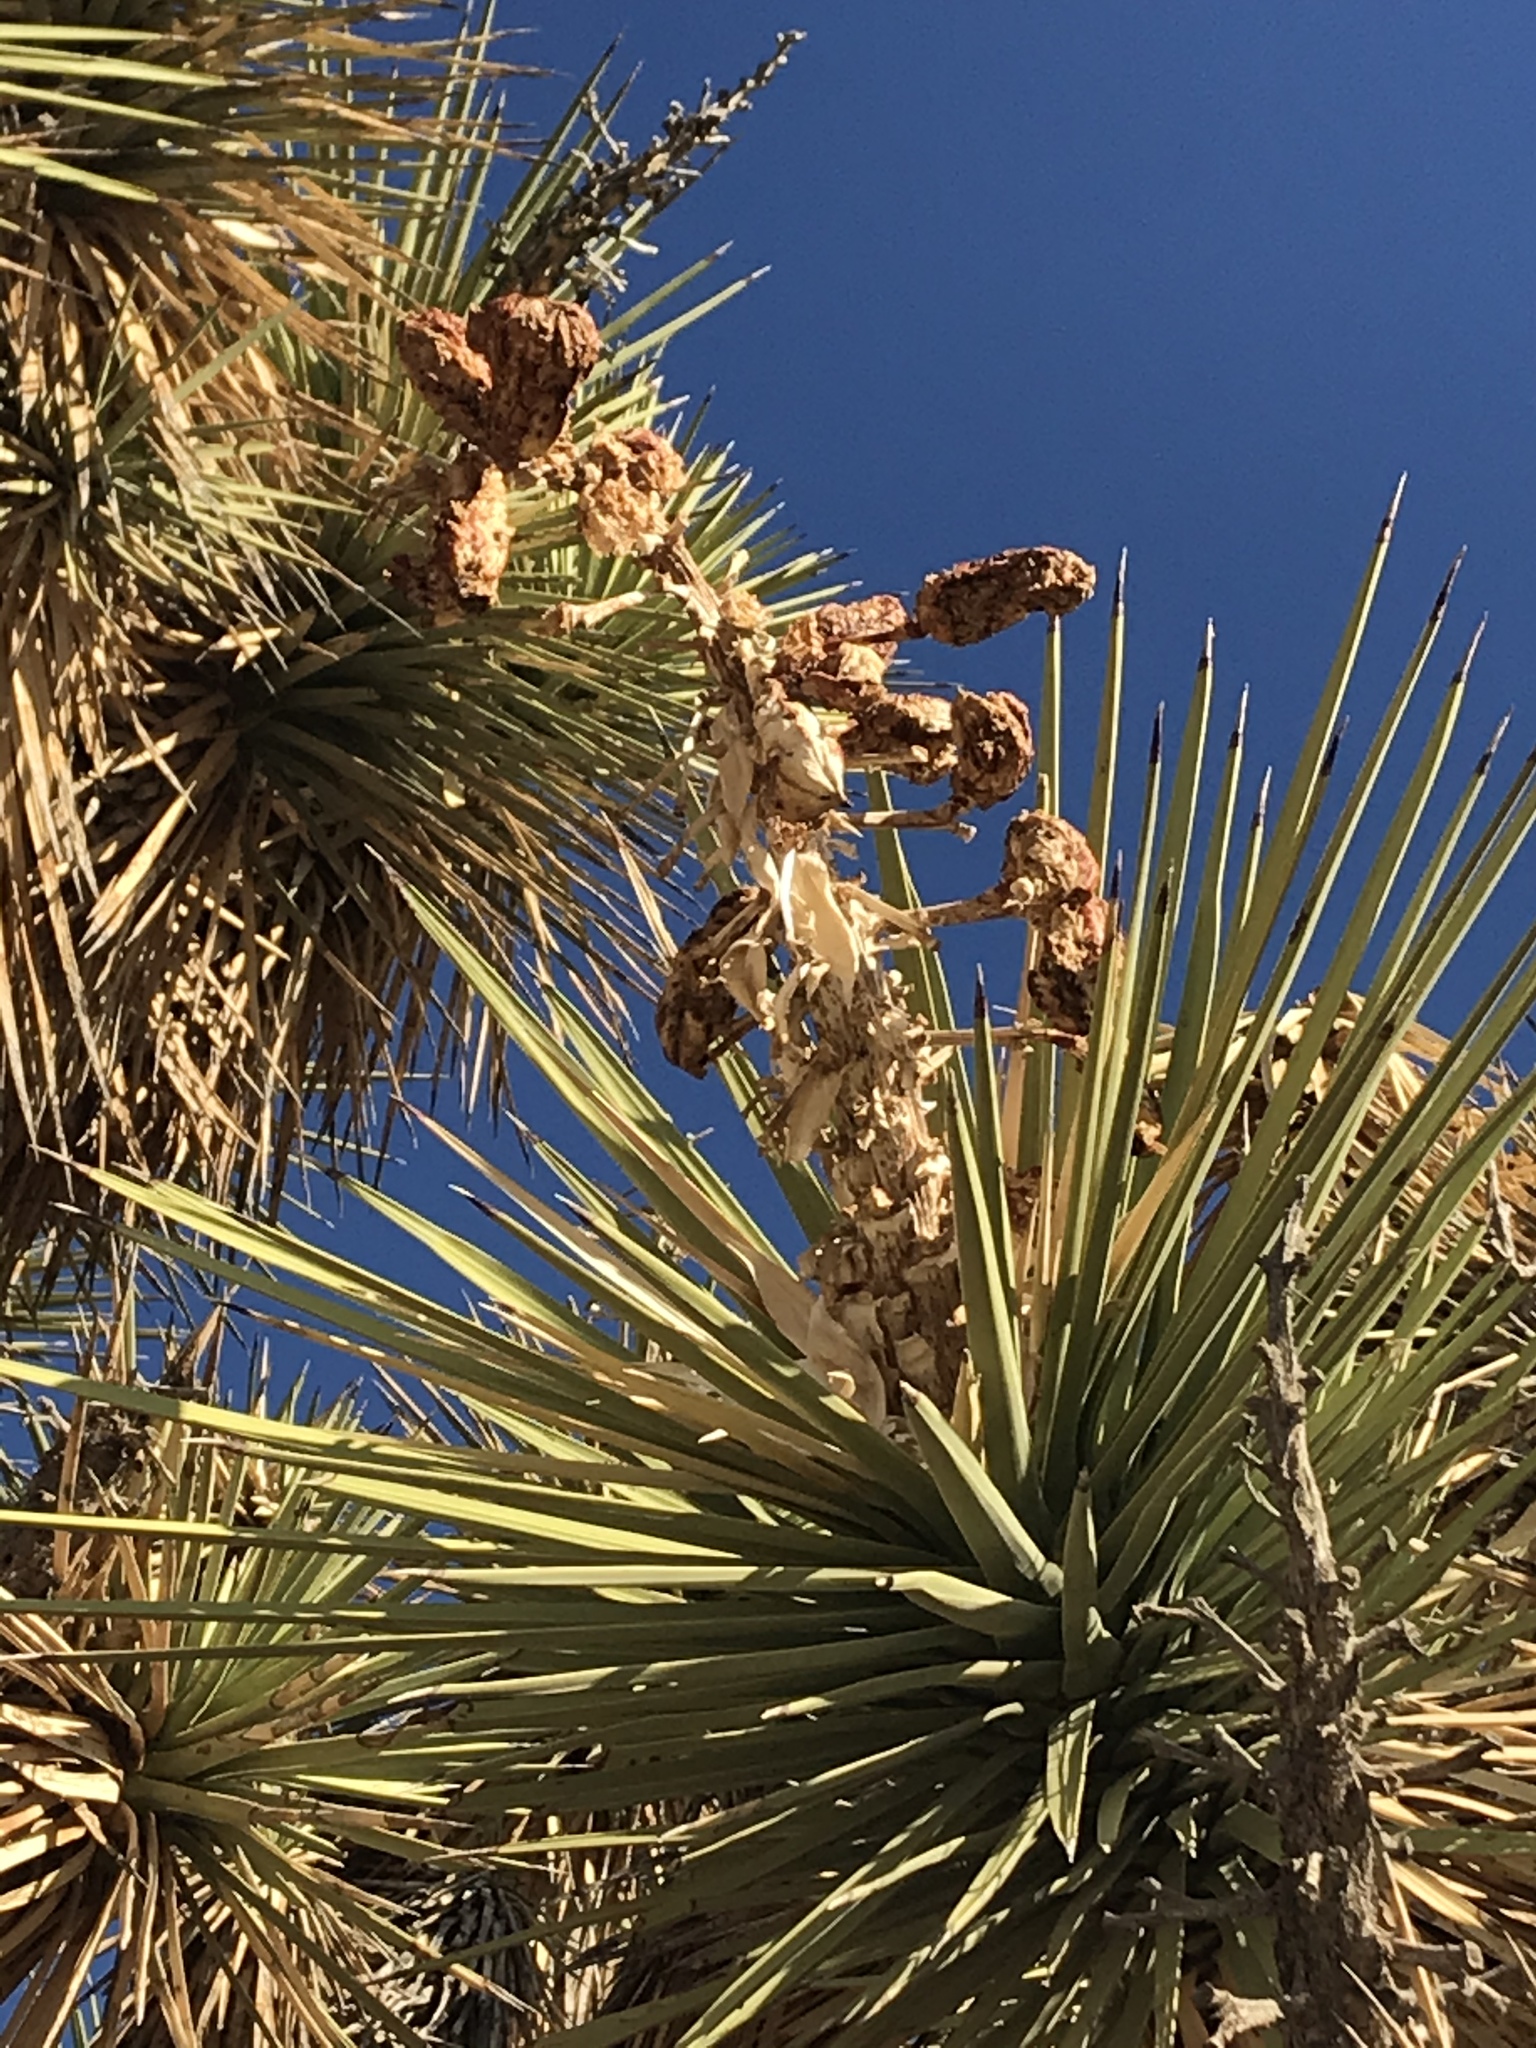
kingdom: Plantae
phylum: Tracheophyta
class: Liliopsida
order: Asparagales
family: Asparagaceae
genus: Yucca
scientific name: Yucca brevifolia
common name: Joshua tree
